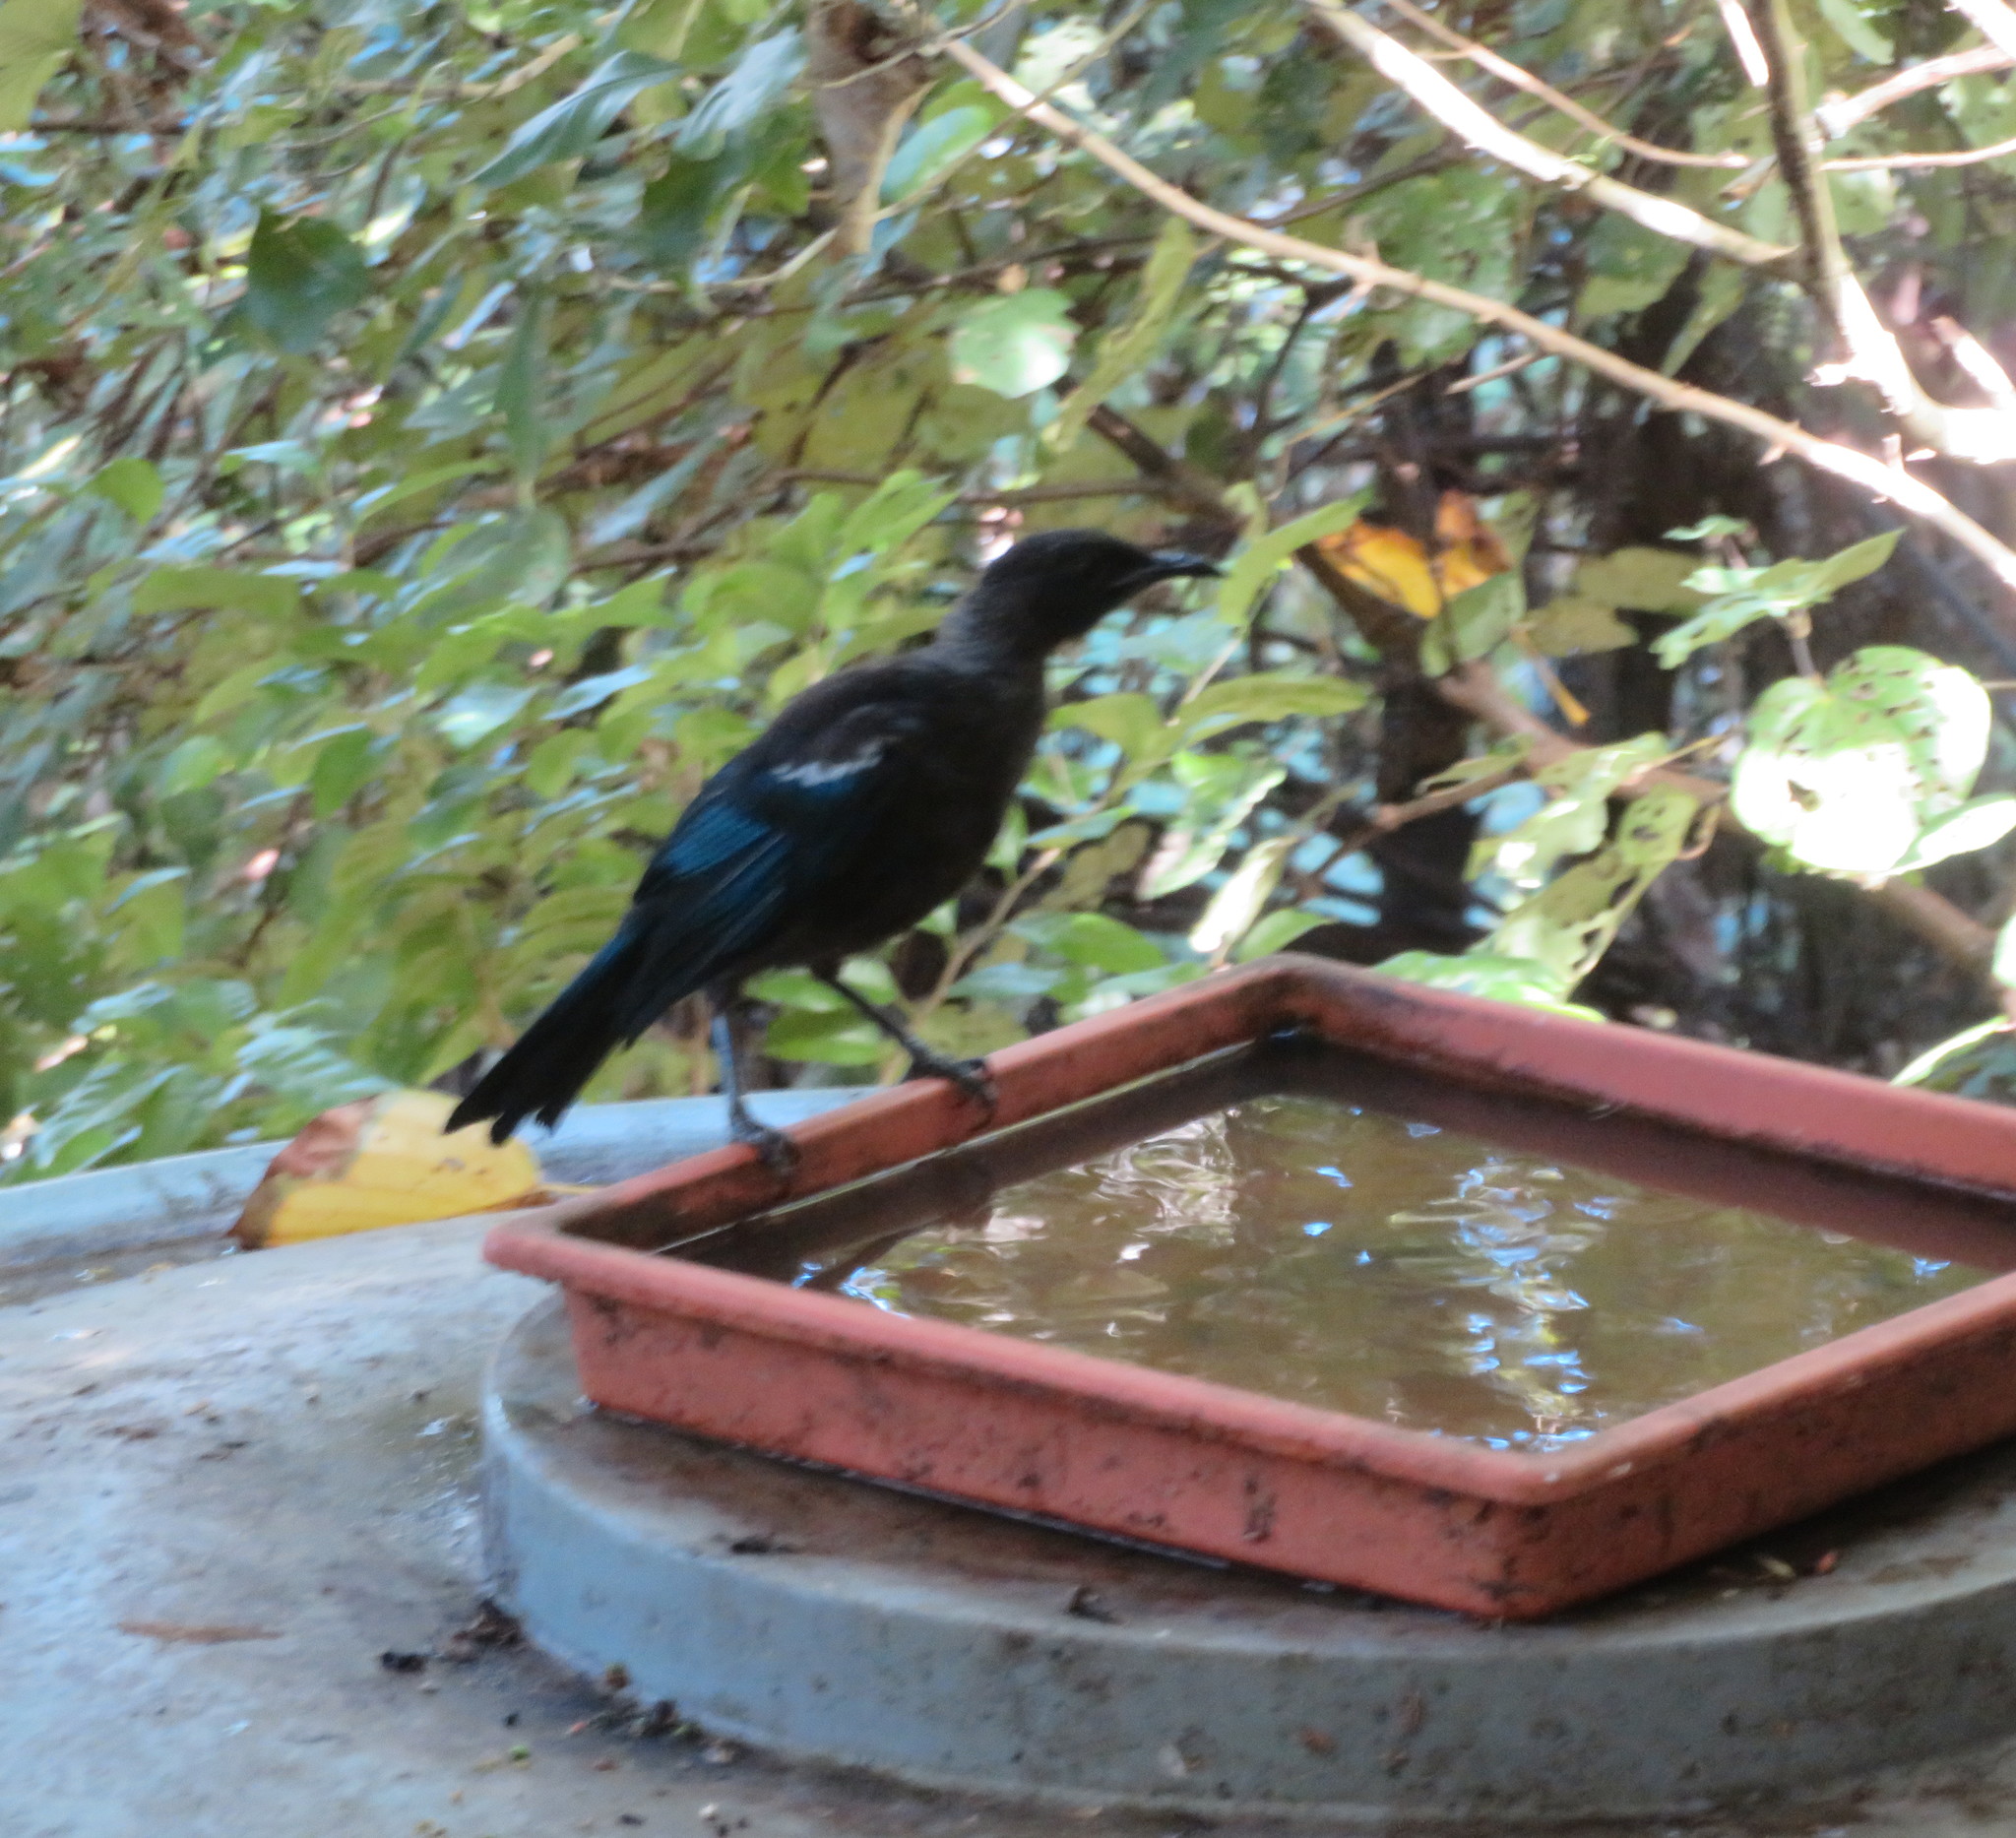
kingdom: Animalia
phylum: Chordata
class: Aves
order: Passeriformes
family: Meliphagidae
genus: Prosthemadera
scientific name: Prosthemadera novaeseelandiae
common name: Tui
